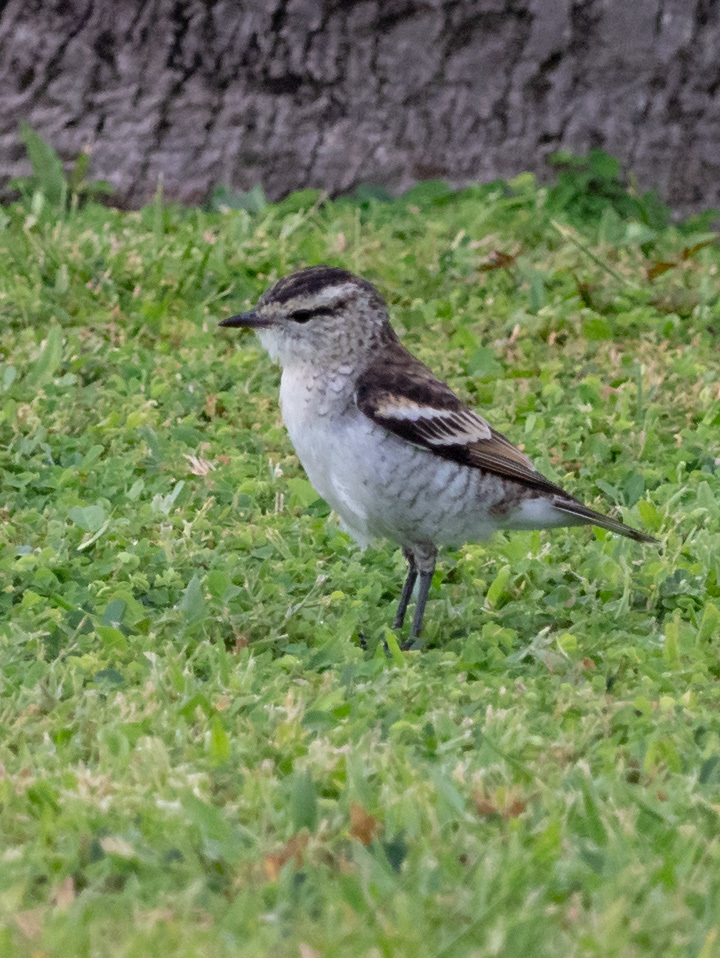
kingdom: Animalia
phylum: Chordata
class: Aves
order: Passeriformes
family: Campephagidae
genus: Lalage
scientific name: Lalage maculosa
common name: Polynesian triller
